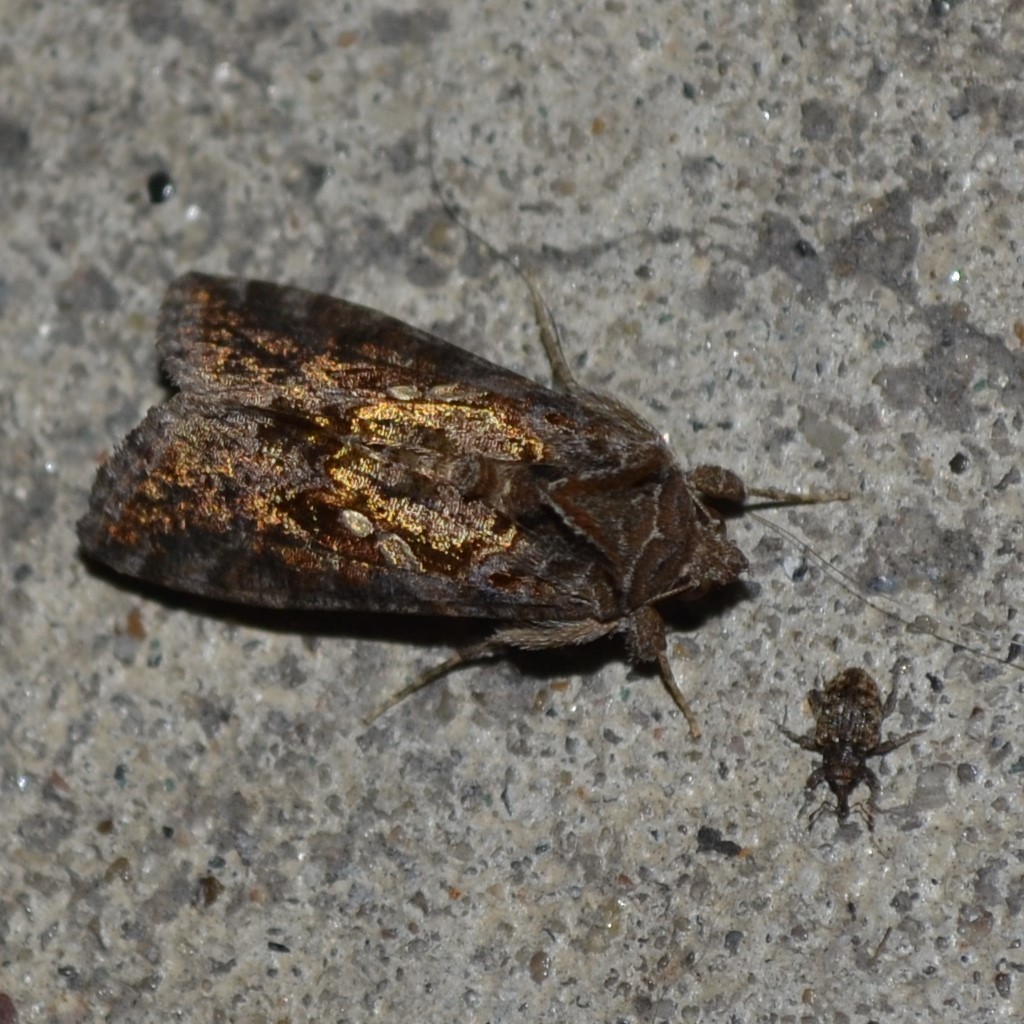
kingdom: Animalia
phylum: Arthropoda
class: Insecta
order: Lepidoptera
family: Noctuidae
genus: Chrysodeixis
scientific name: Chrysodeixis includens
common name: Cutworm moth
